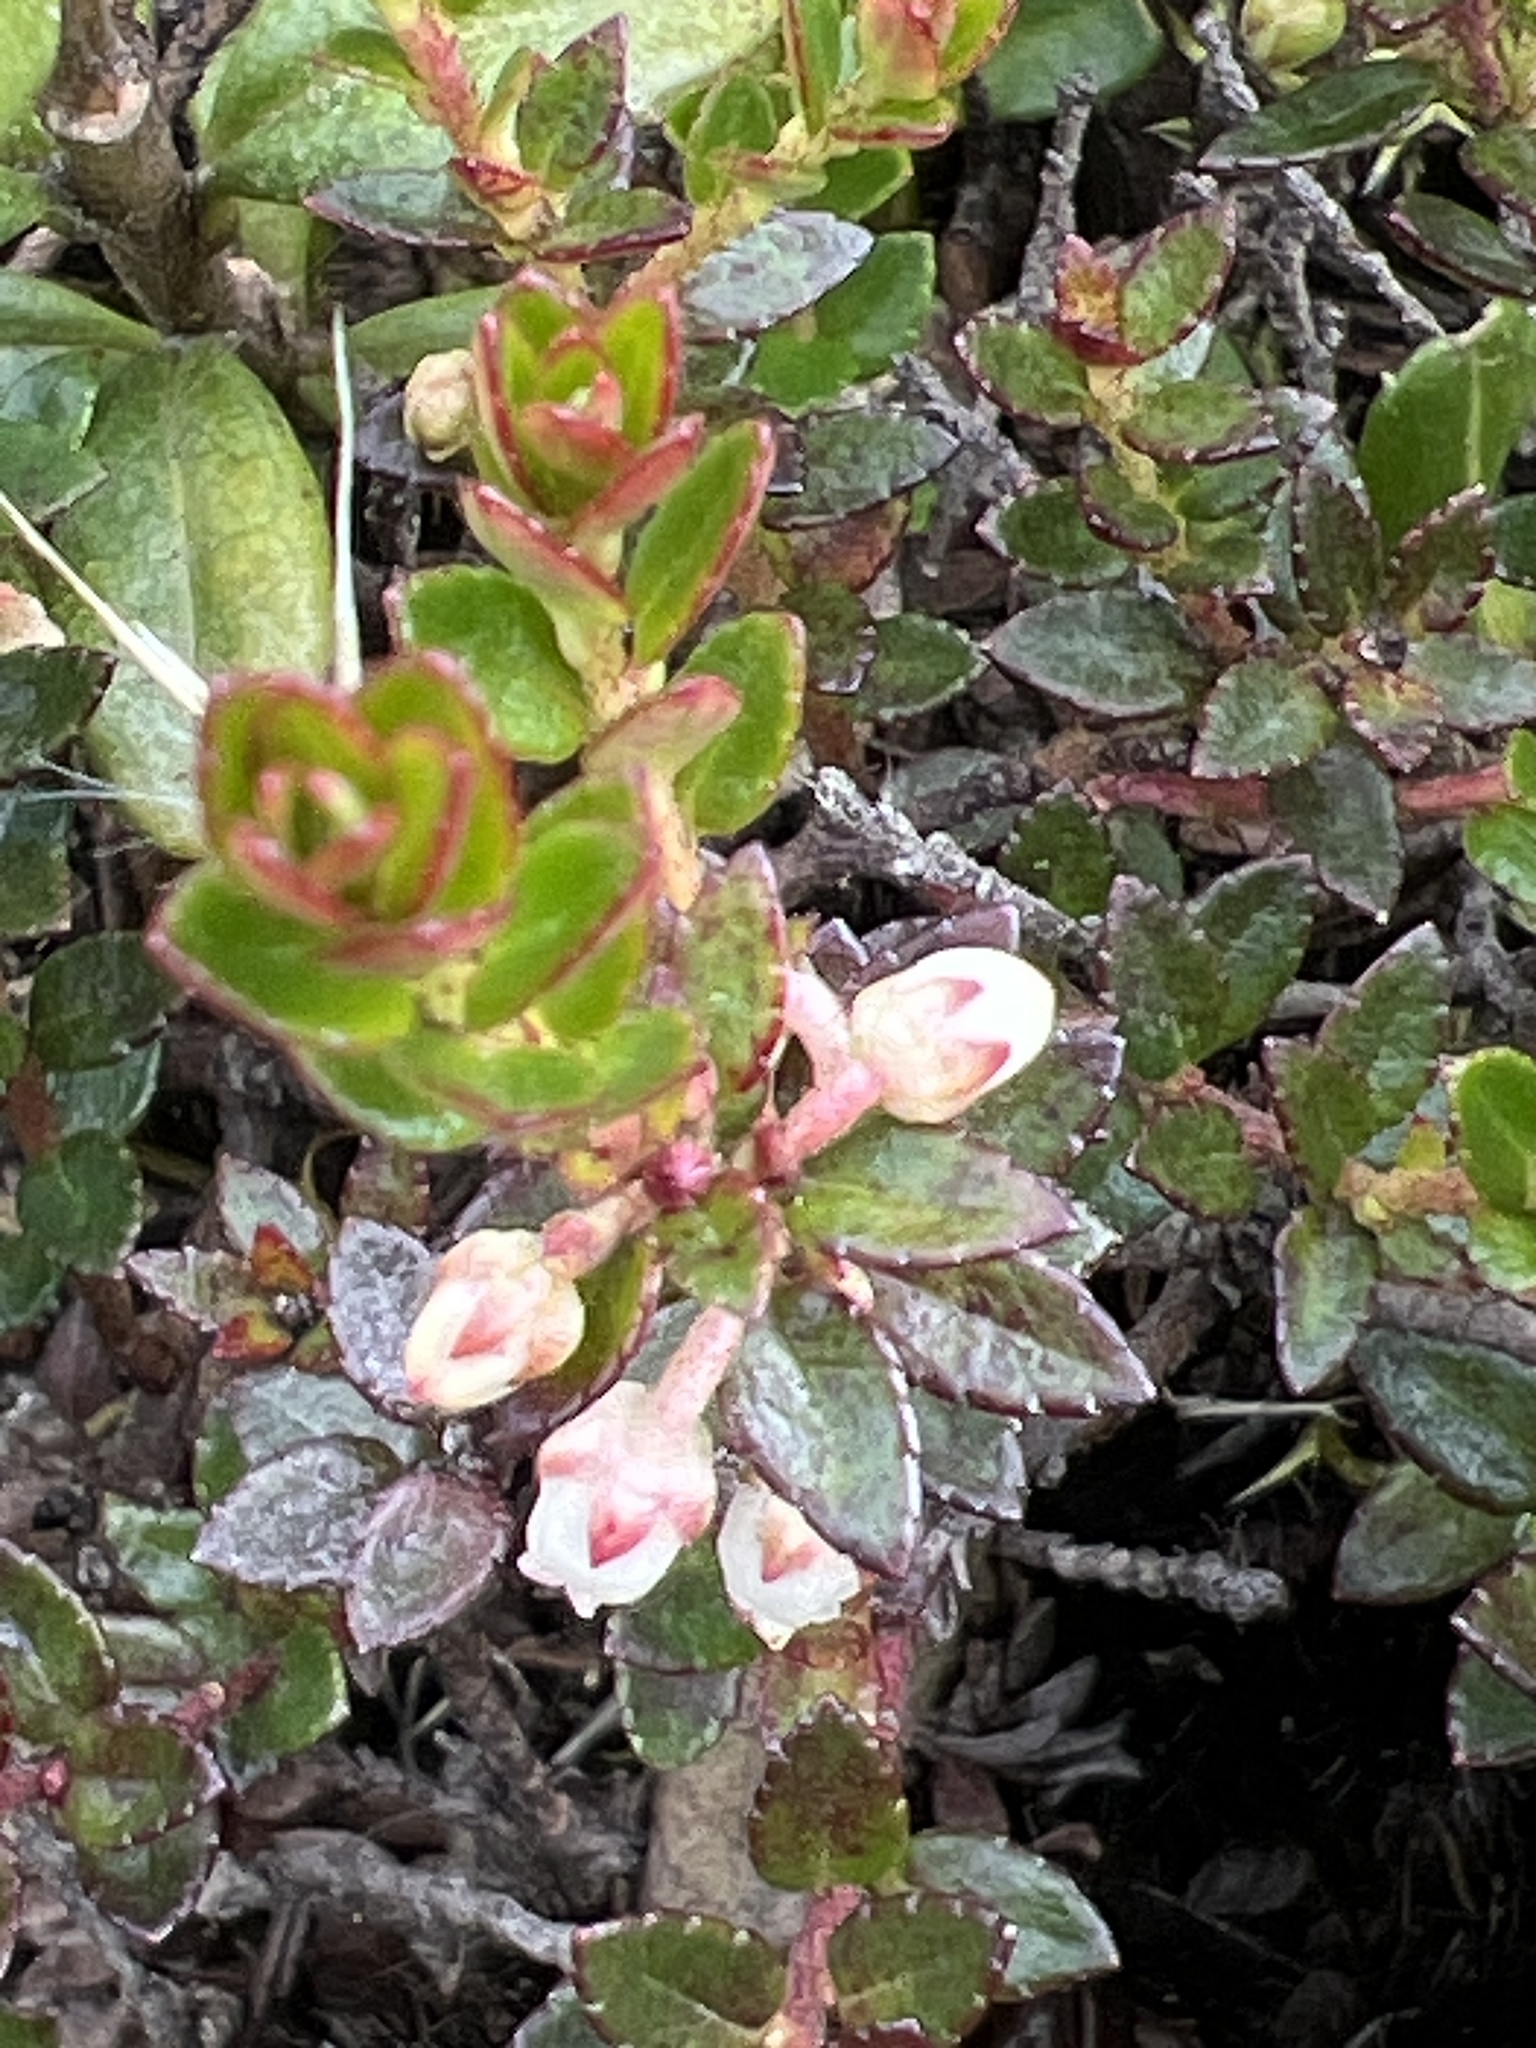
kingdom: Plantae
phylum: Tracheophyta
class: Magnoliopsida
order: Ericales
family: Ericaceae
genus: Gaultheria
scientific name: Gaultheria myrsinoides
